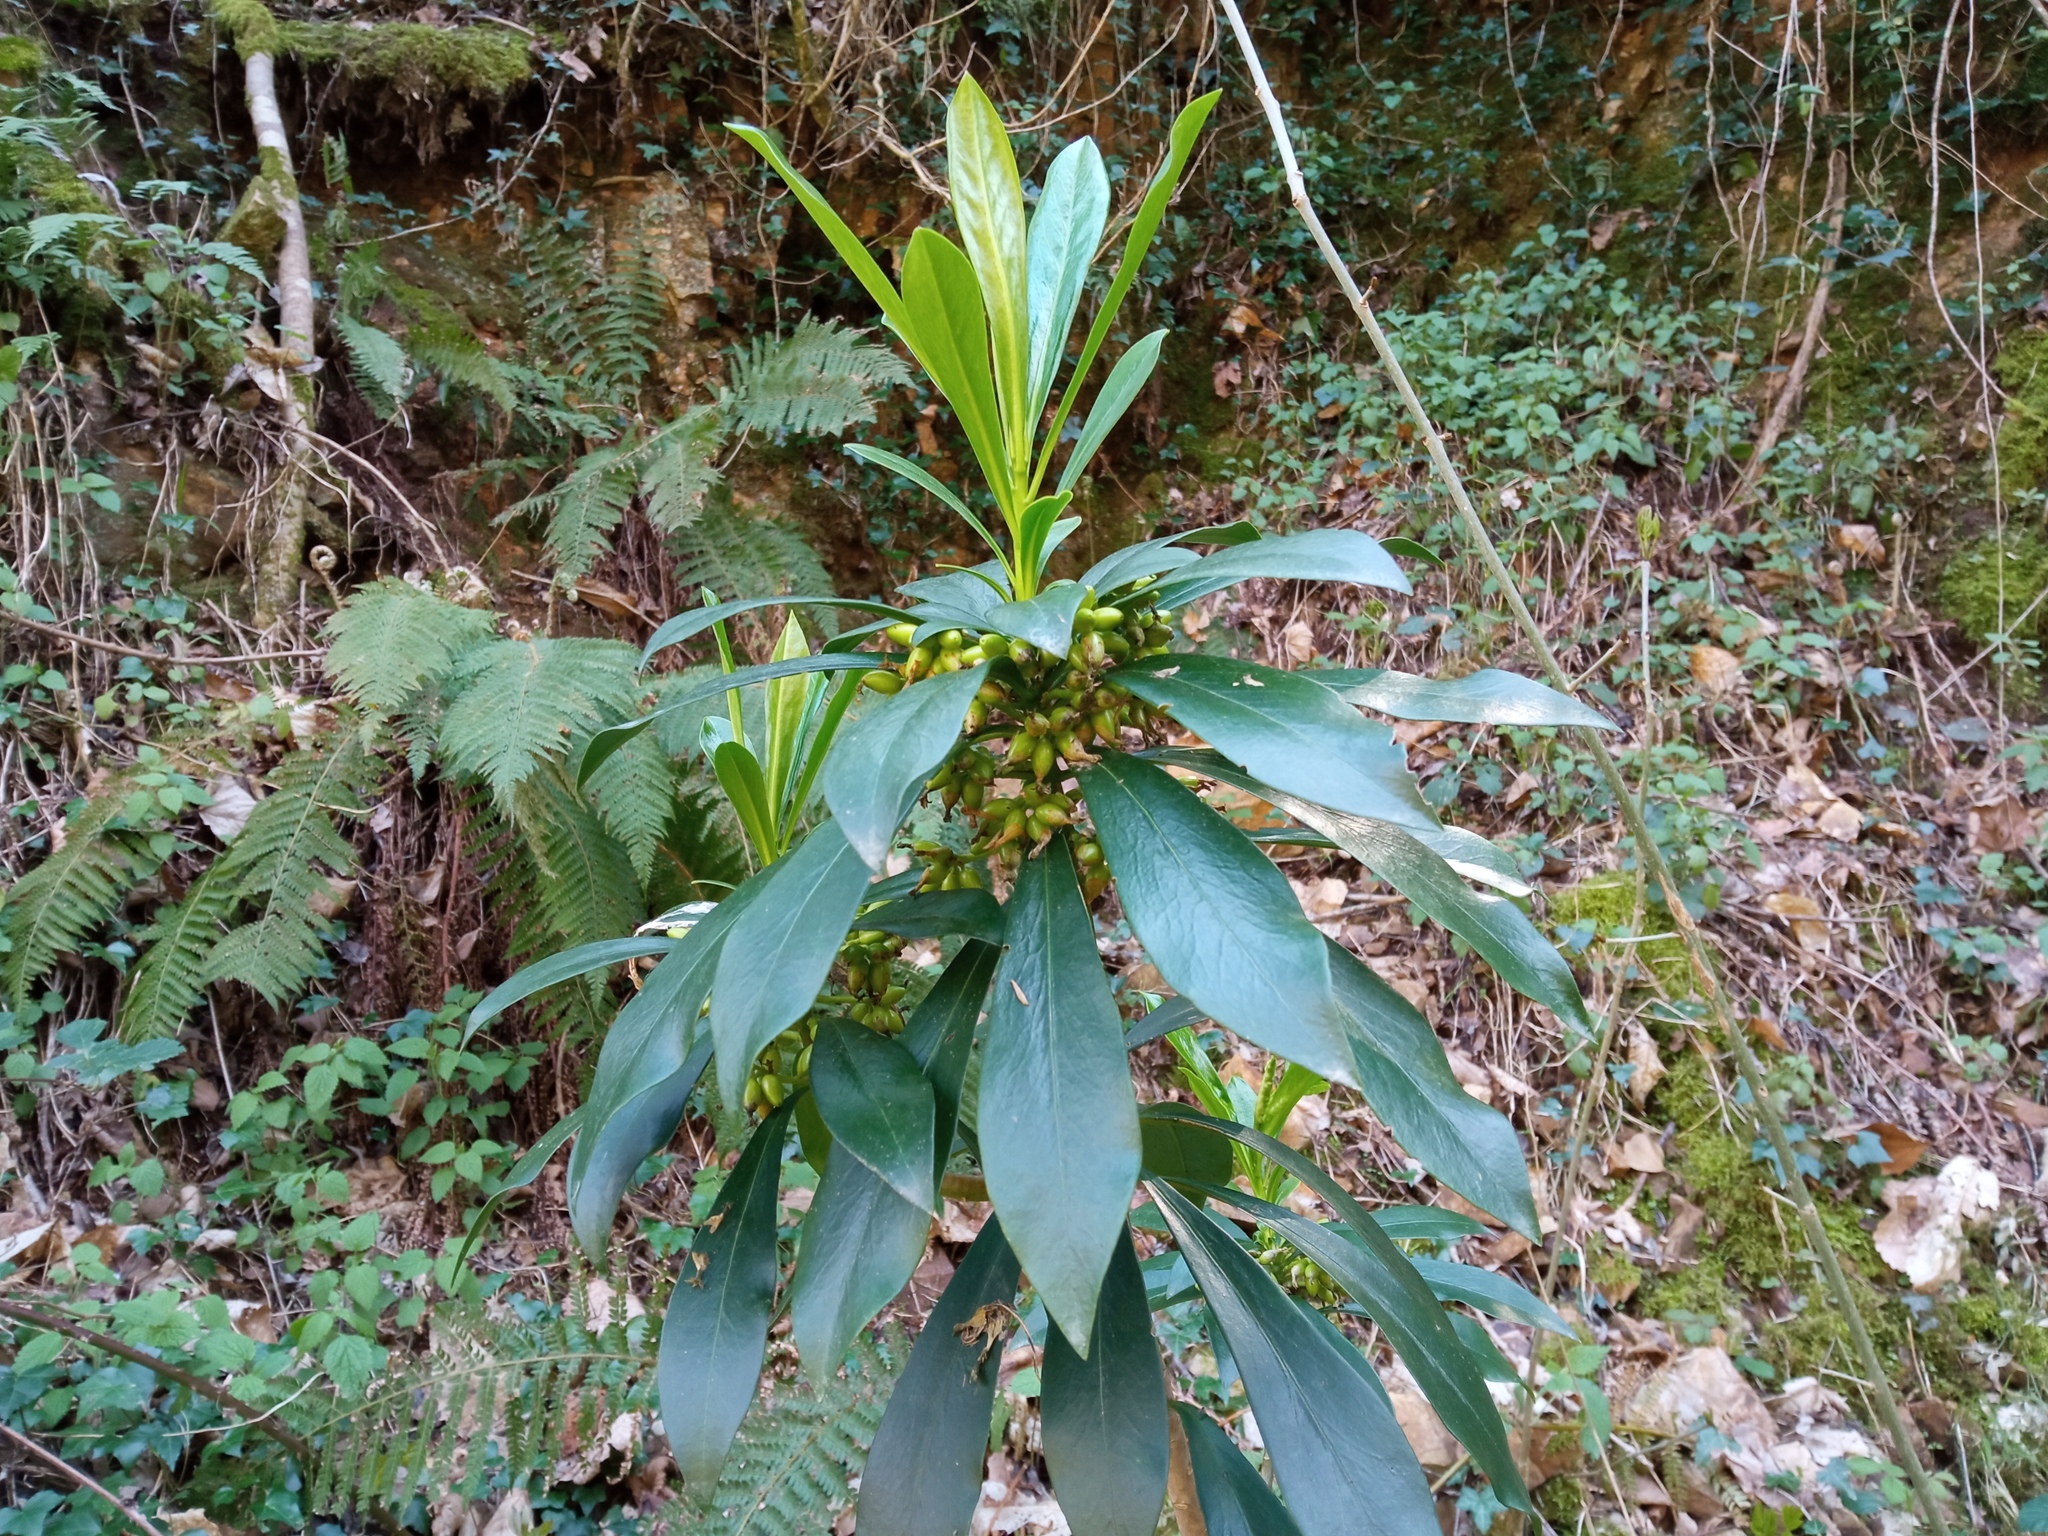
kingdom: Plantae
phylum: Tracheophyta
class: Magnoliopsida
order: Malvales
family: Thymelaeaceae
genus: Daphne
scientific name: Daphne laureola
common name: Spurge-laurel
